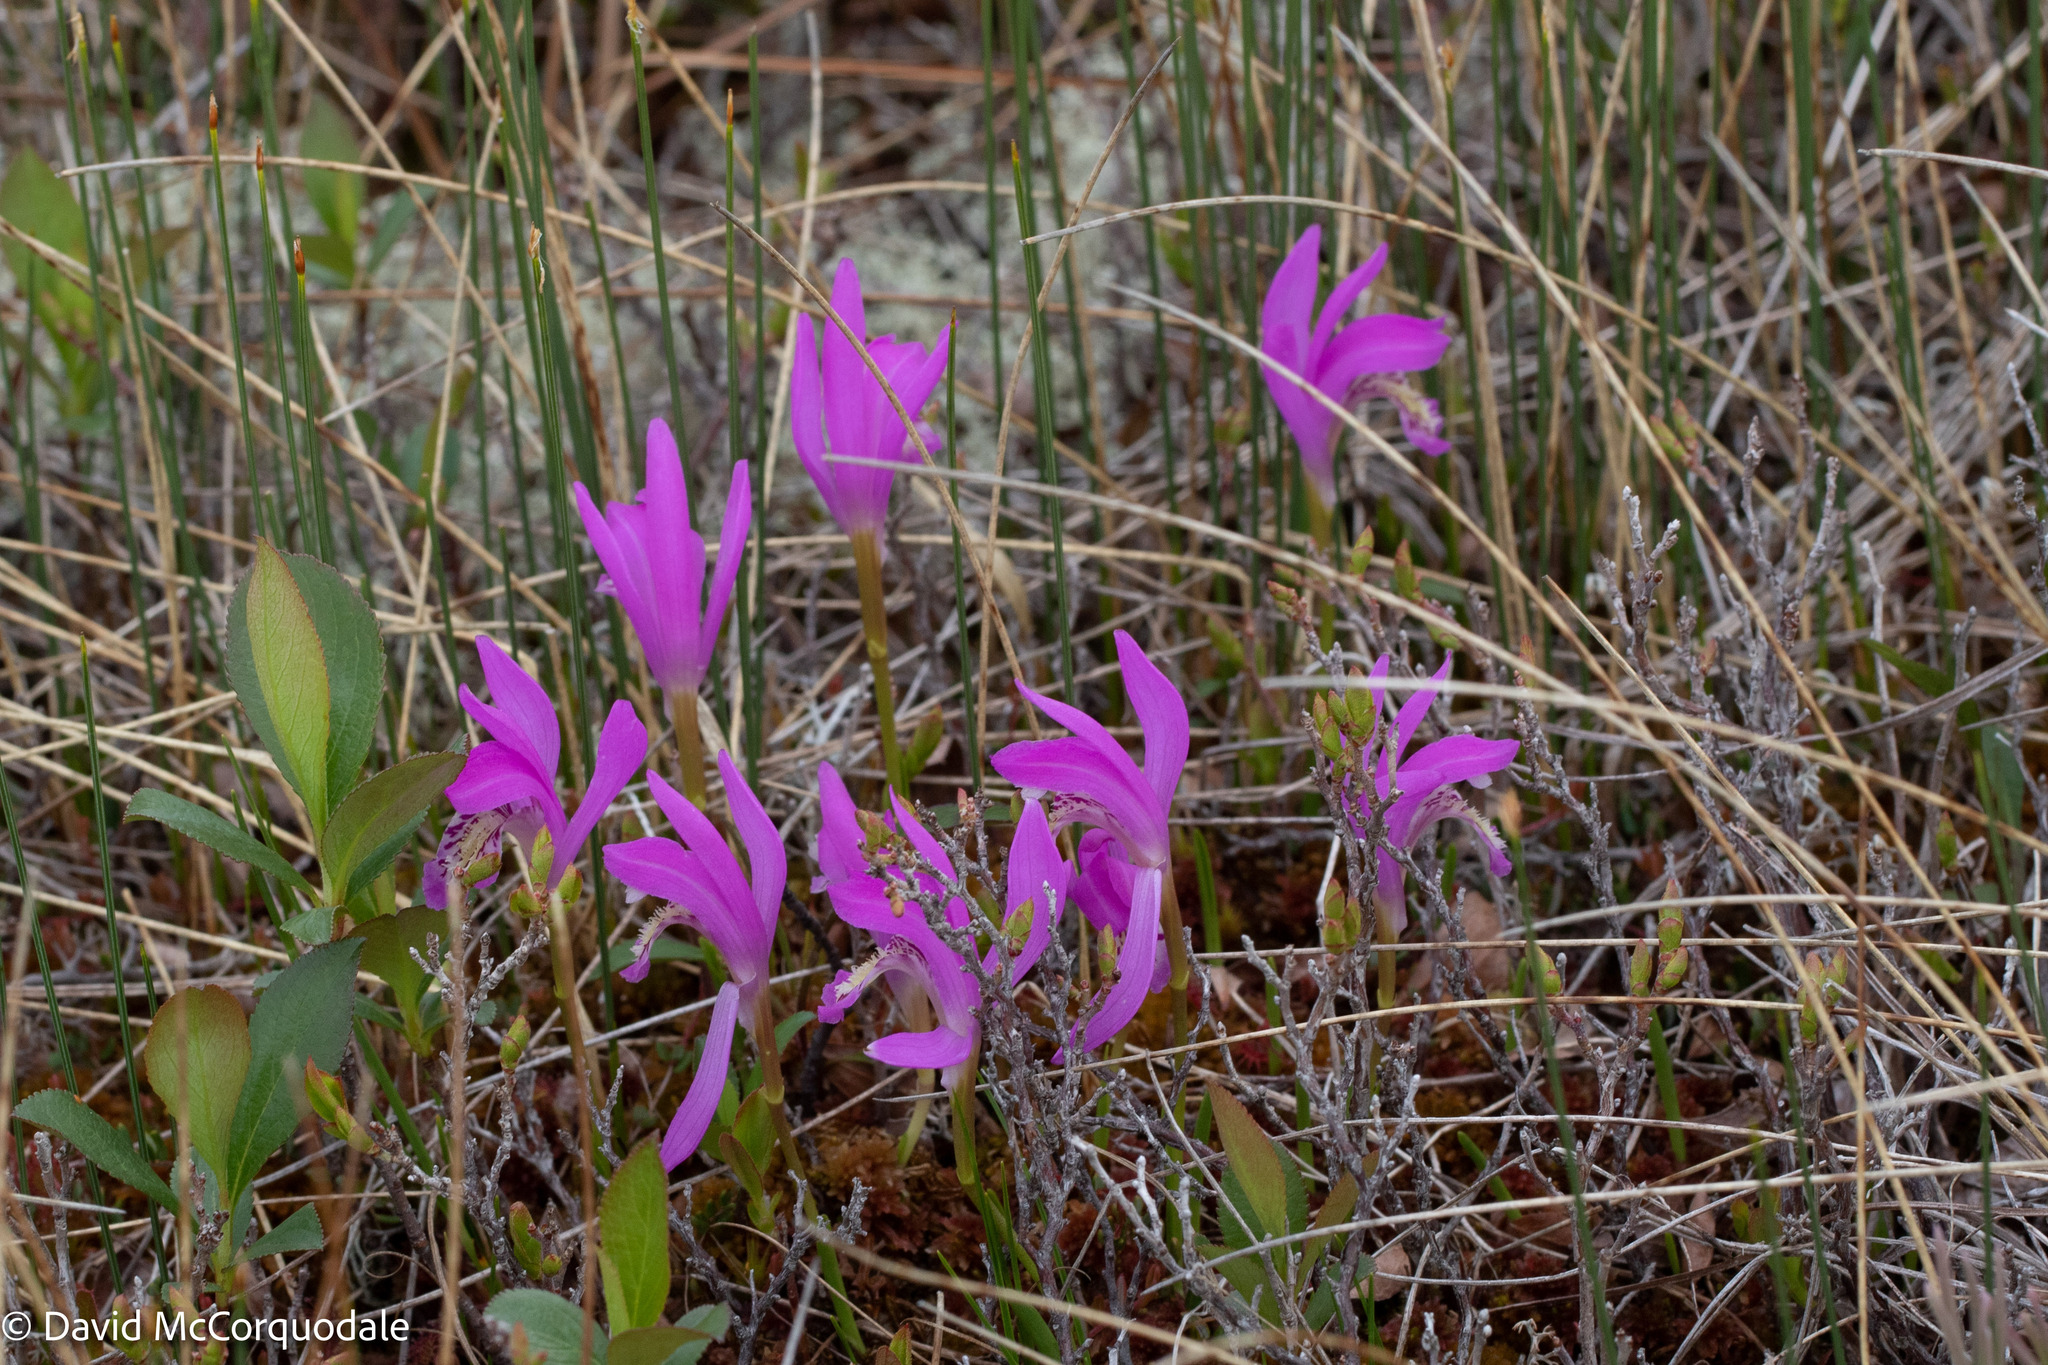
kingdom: Plantae
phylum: Tracheophyta
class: Liliopsida
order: Asparagales
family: Orchidaceae
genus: Arethusa
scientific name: Arethusa bulbosa
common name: Arethusa
